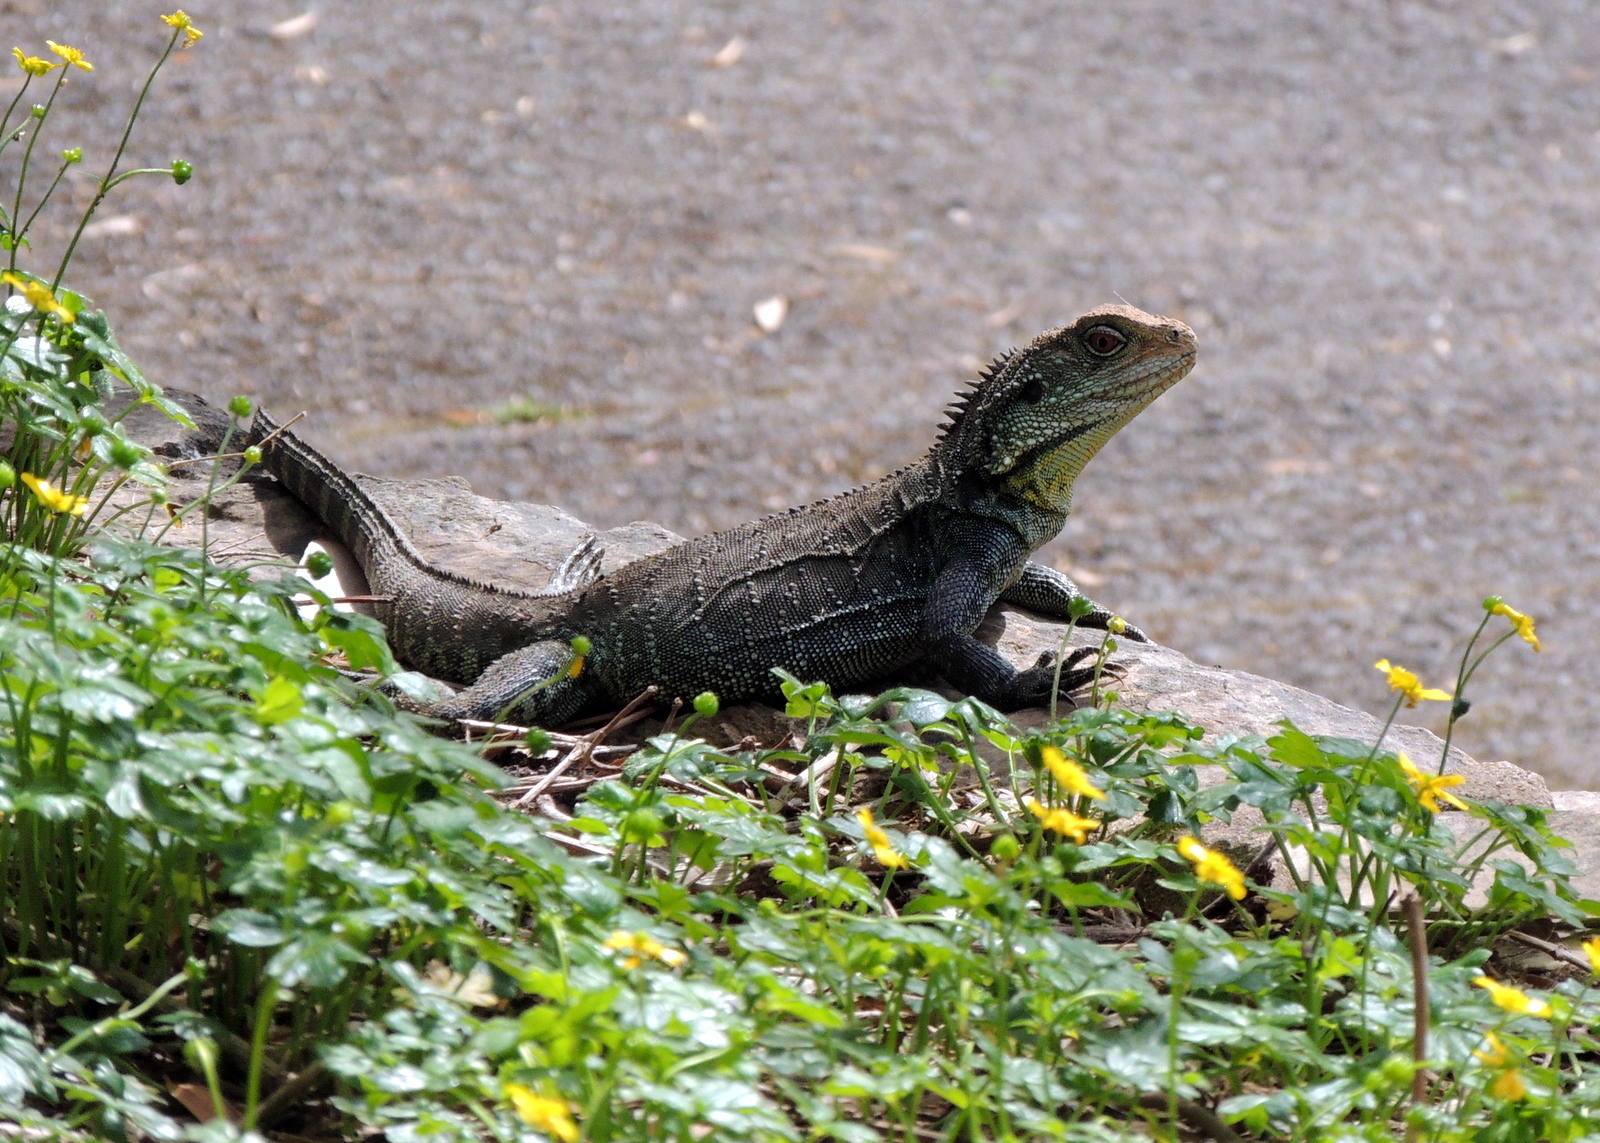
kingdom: Animalia
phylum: Chordata
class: Squamata
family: Agamidae
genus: Intellagama
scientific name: Intellagama lesueurii
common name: Eastern water dragon
